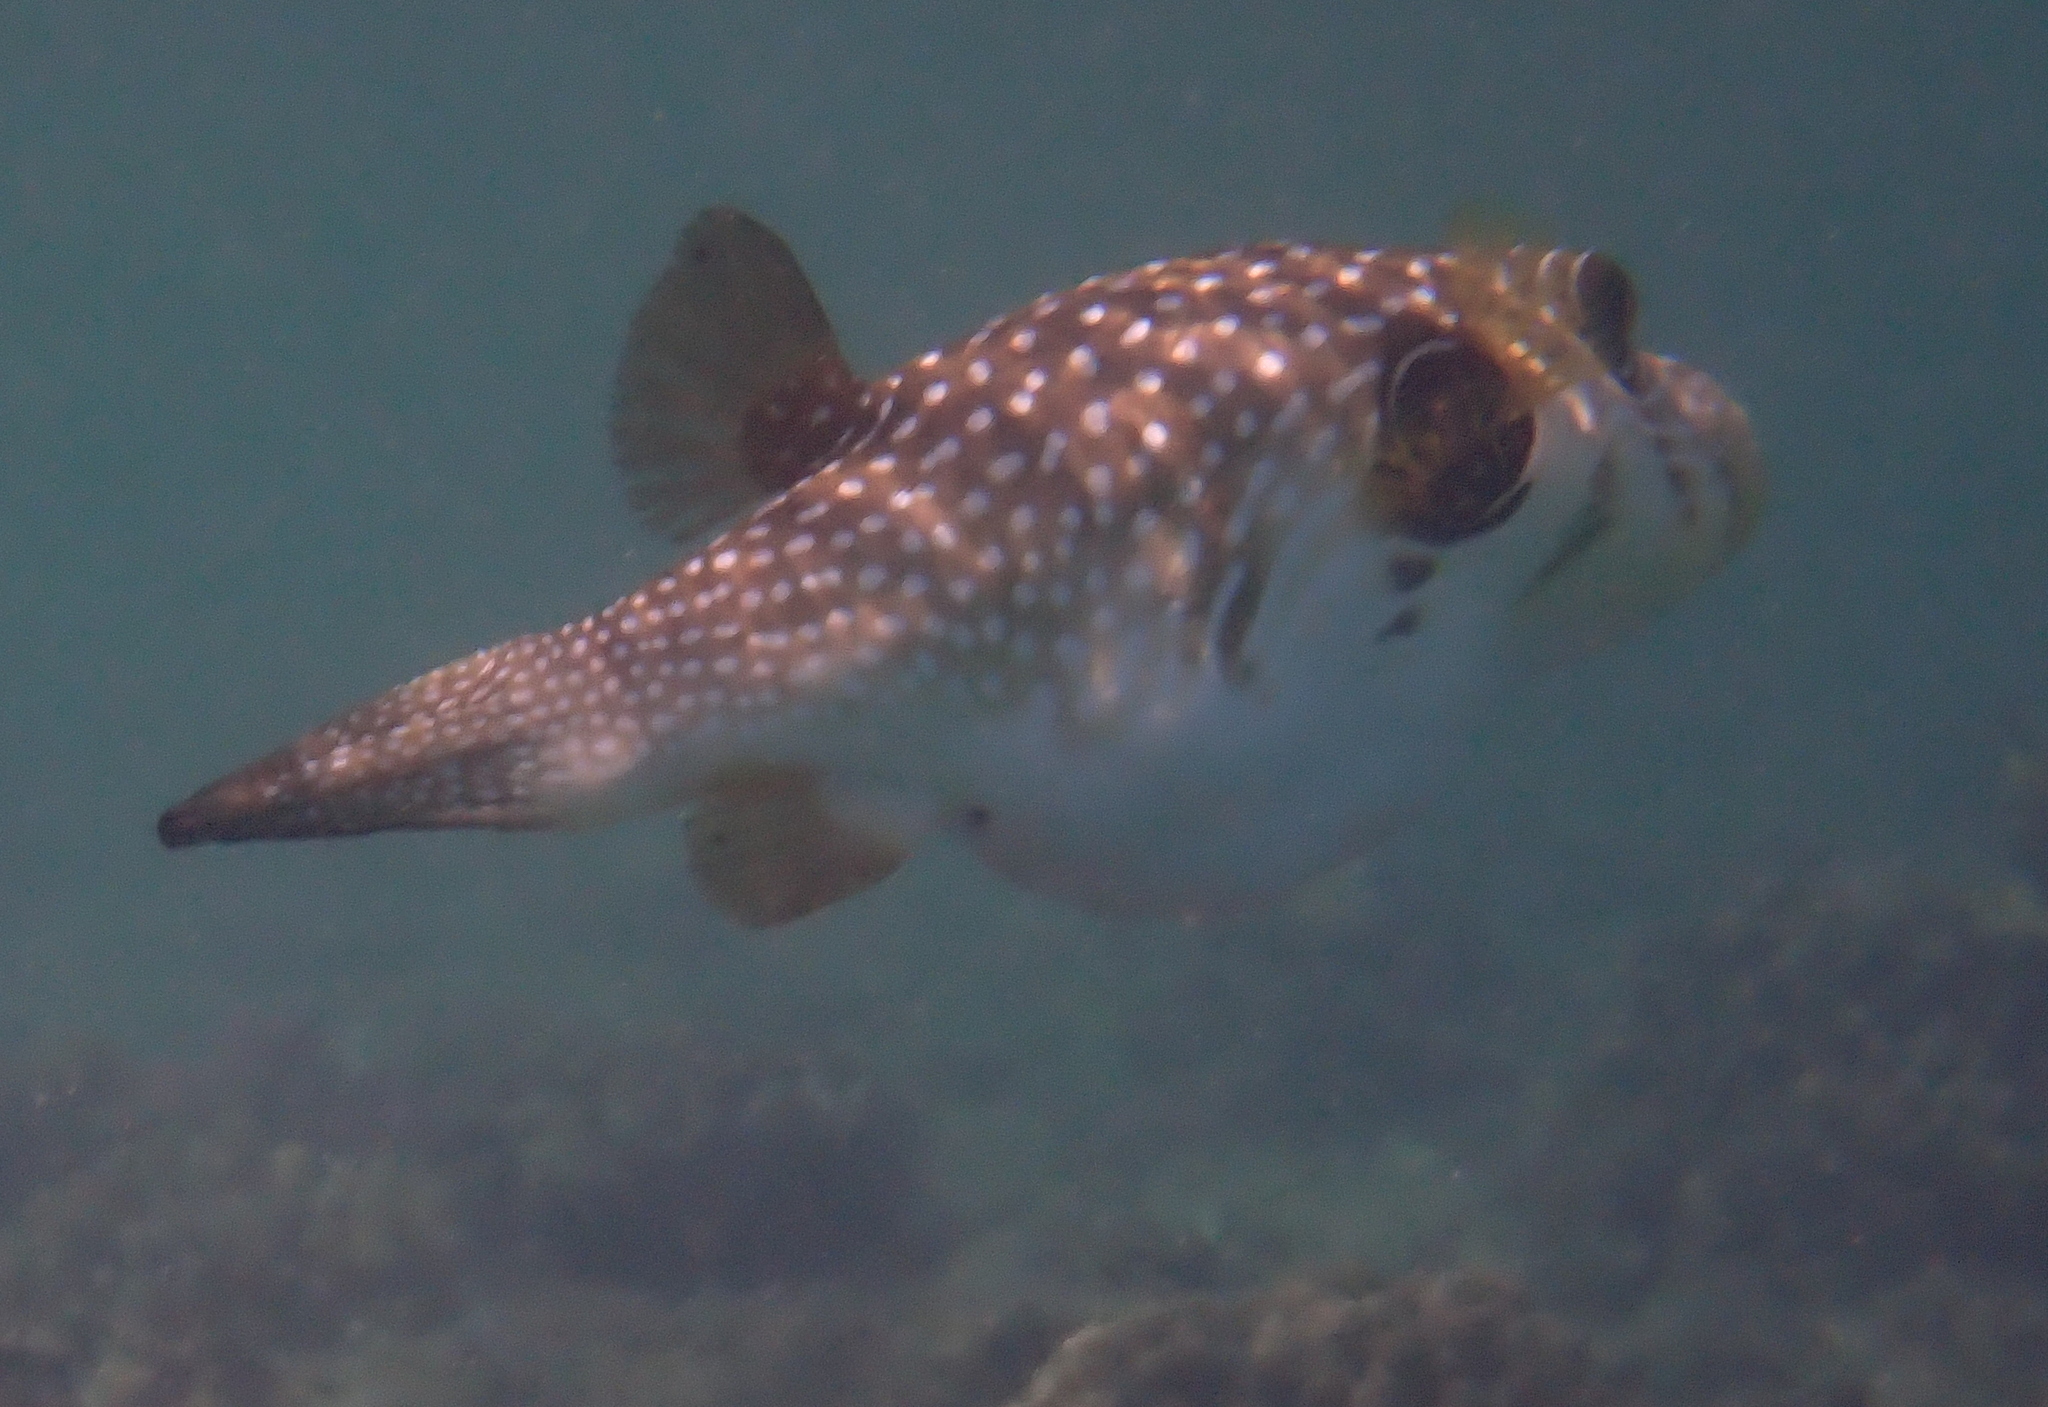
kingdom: Animalia
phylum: Chordata
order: Tetraodontiformes
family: Tetraodontidae
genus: Arothron
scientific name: Arothron hispidus
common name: Stripebelly puffer
